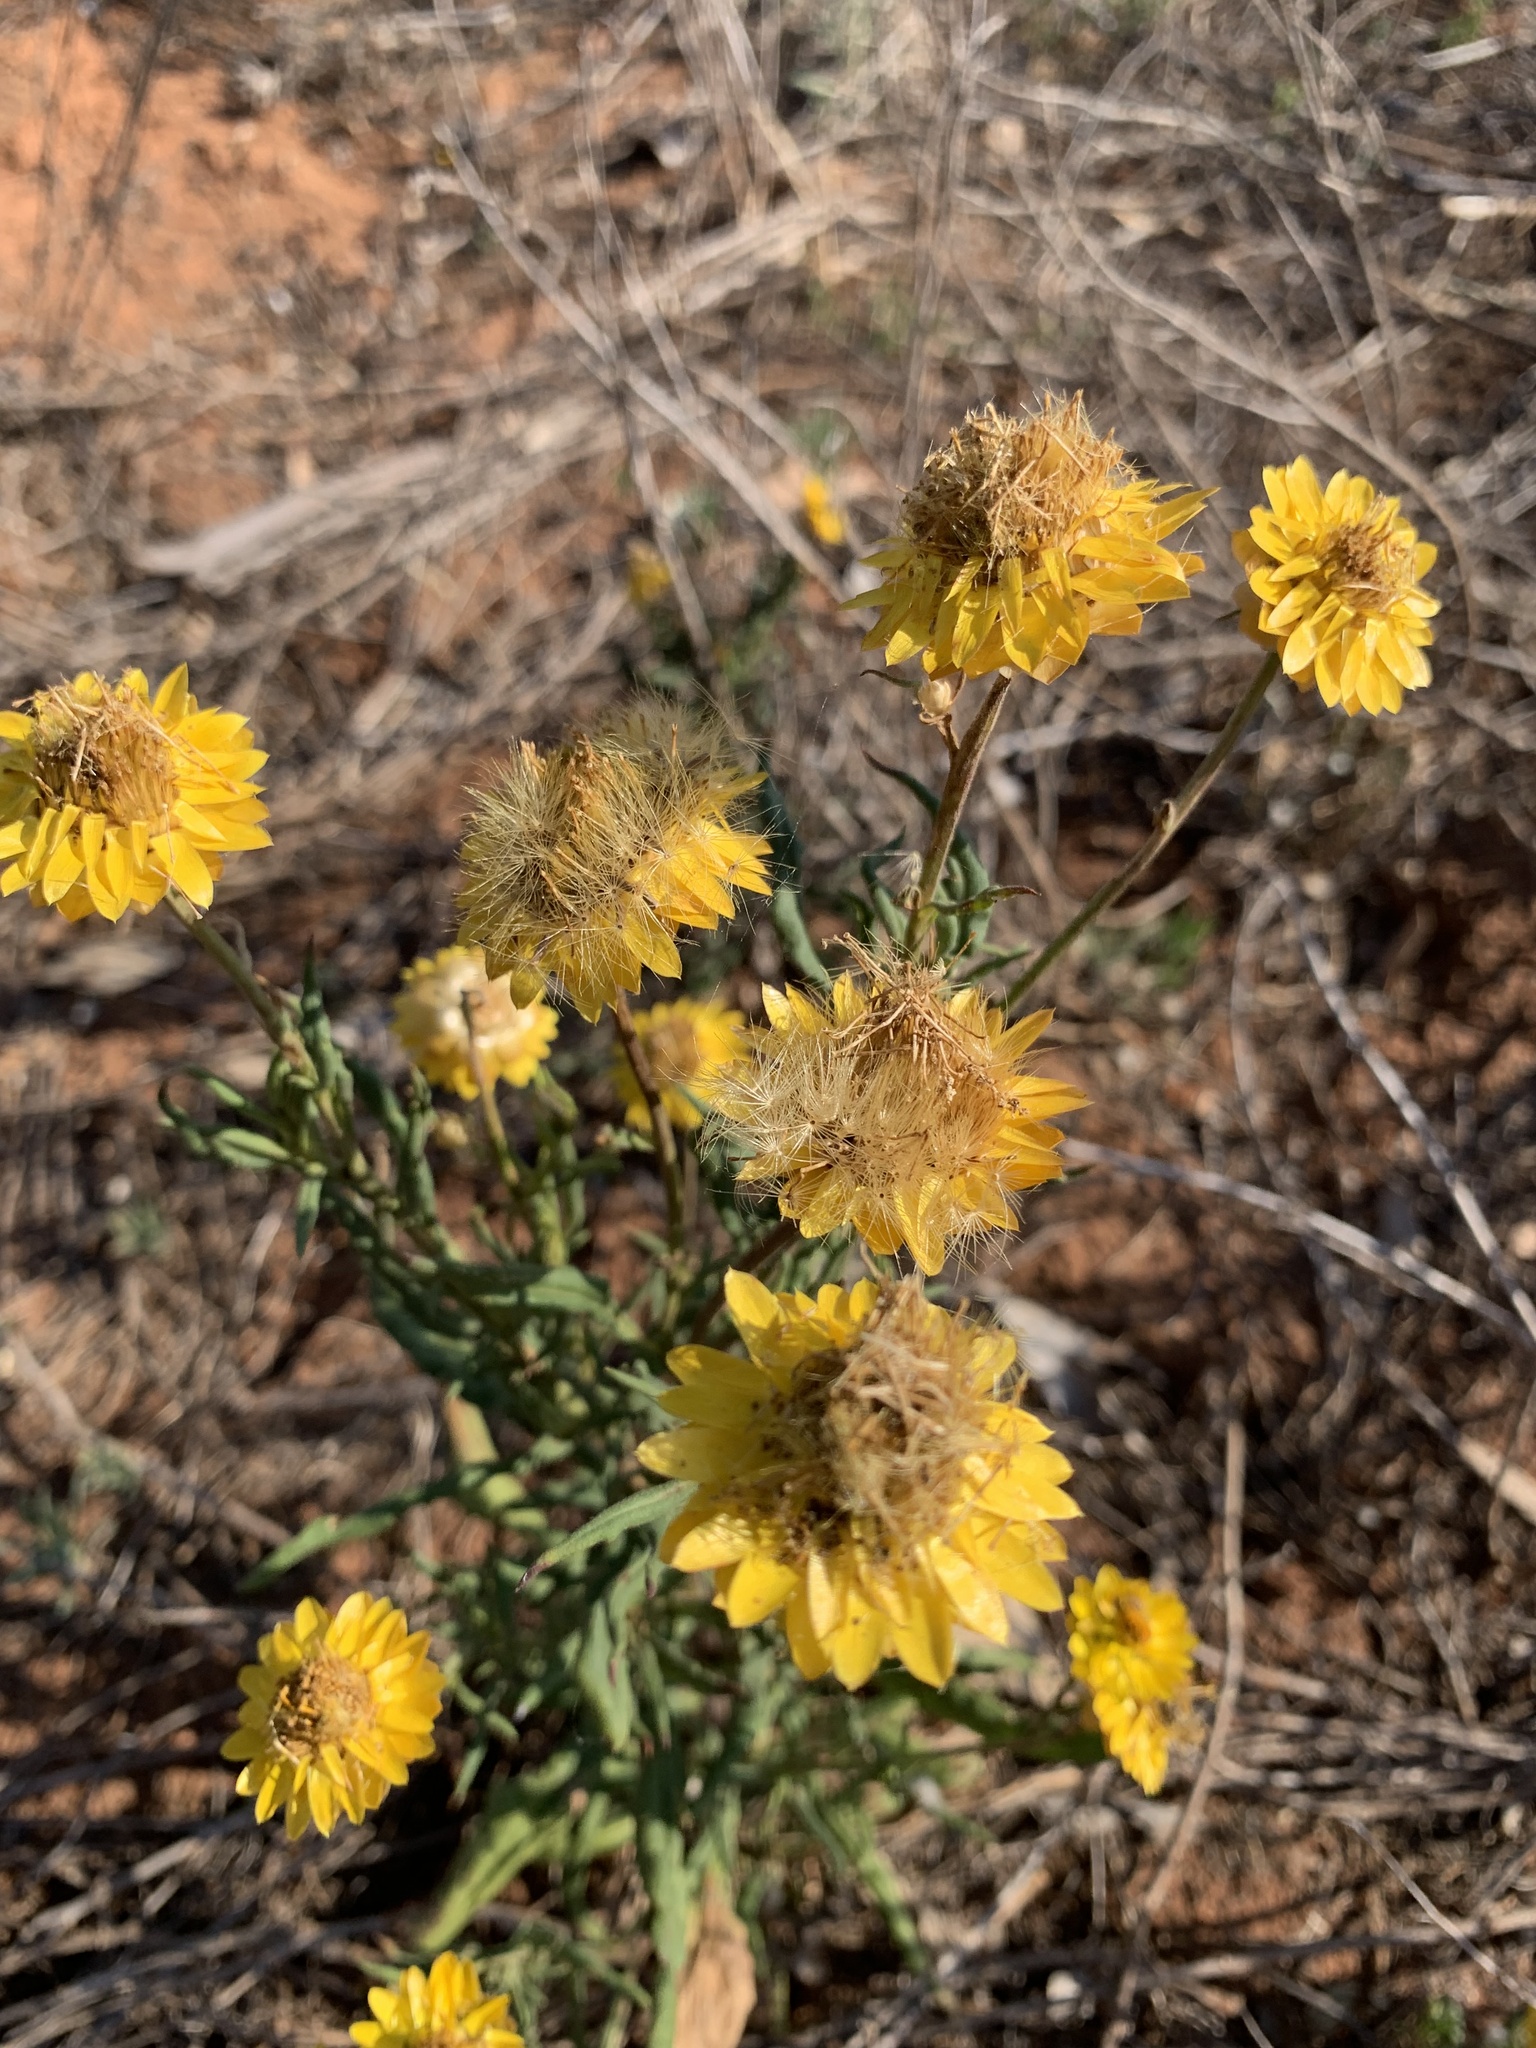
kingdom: Plantae
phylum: Tracheophyta
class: Magnoliopsida
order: Asterales
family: Asteraceae
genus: Xerochrysum
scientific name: Xerochrysum bracteatum
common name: Bracted strawflower
